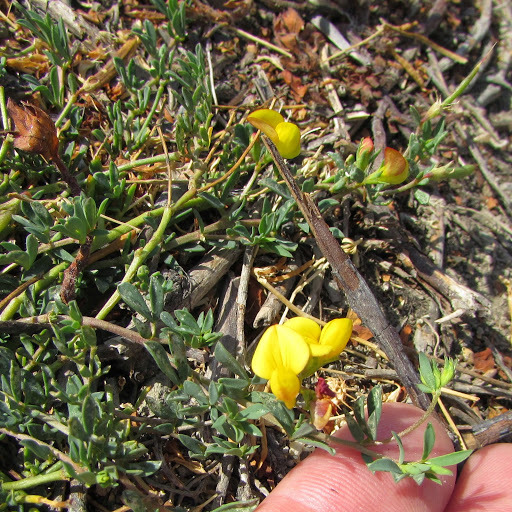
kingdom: Plantae
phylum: Tracheophyta
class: Magnoliopsida
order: Fabales
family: Fabaceae
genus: Lotus
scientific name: Lotus corniculatus
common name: Common bird's-foot-trefoil
